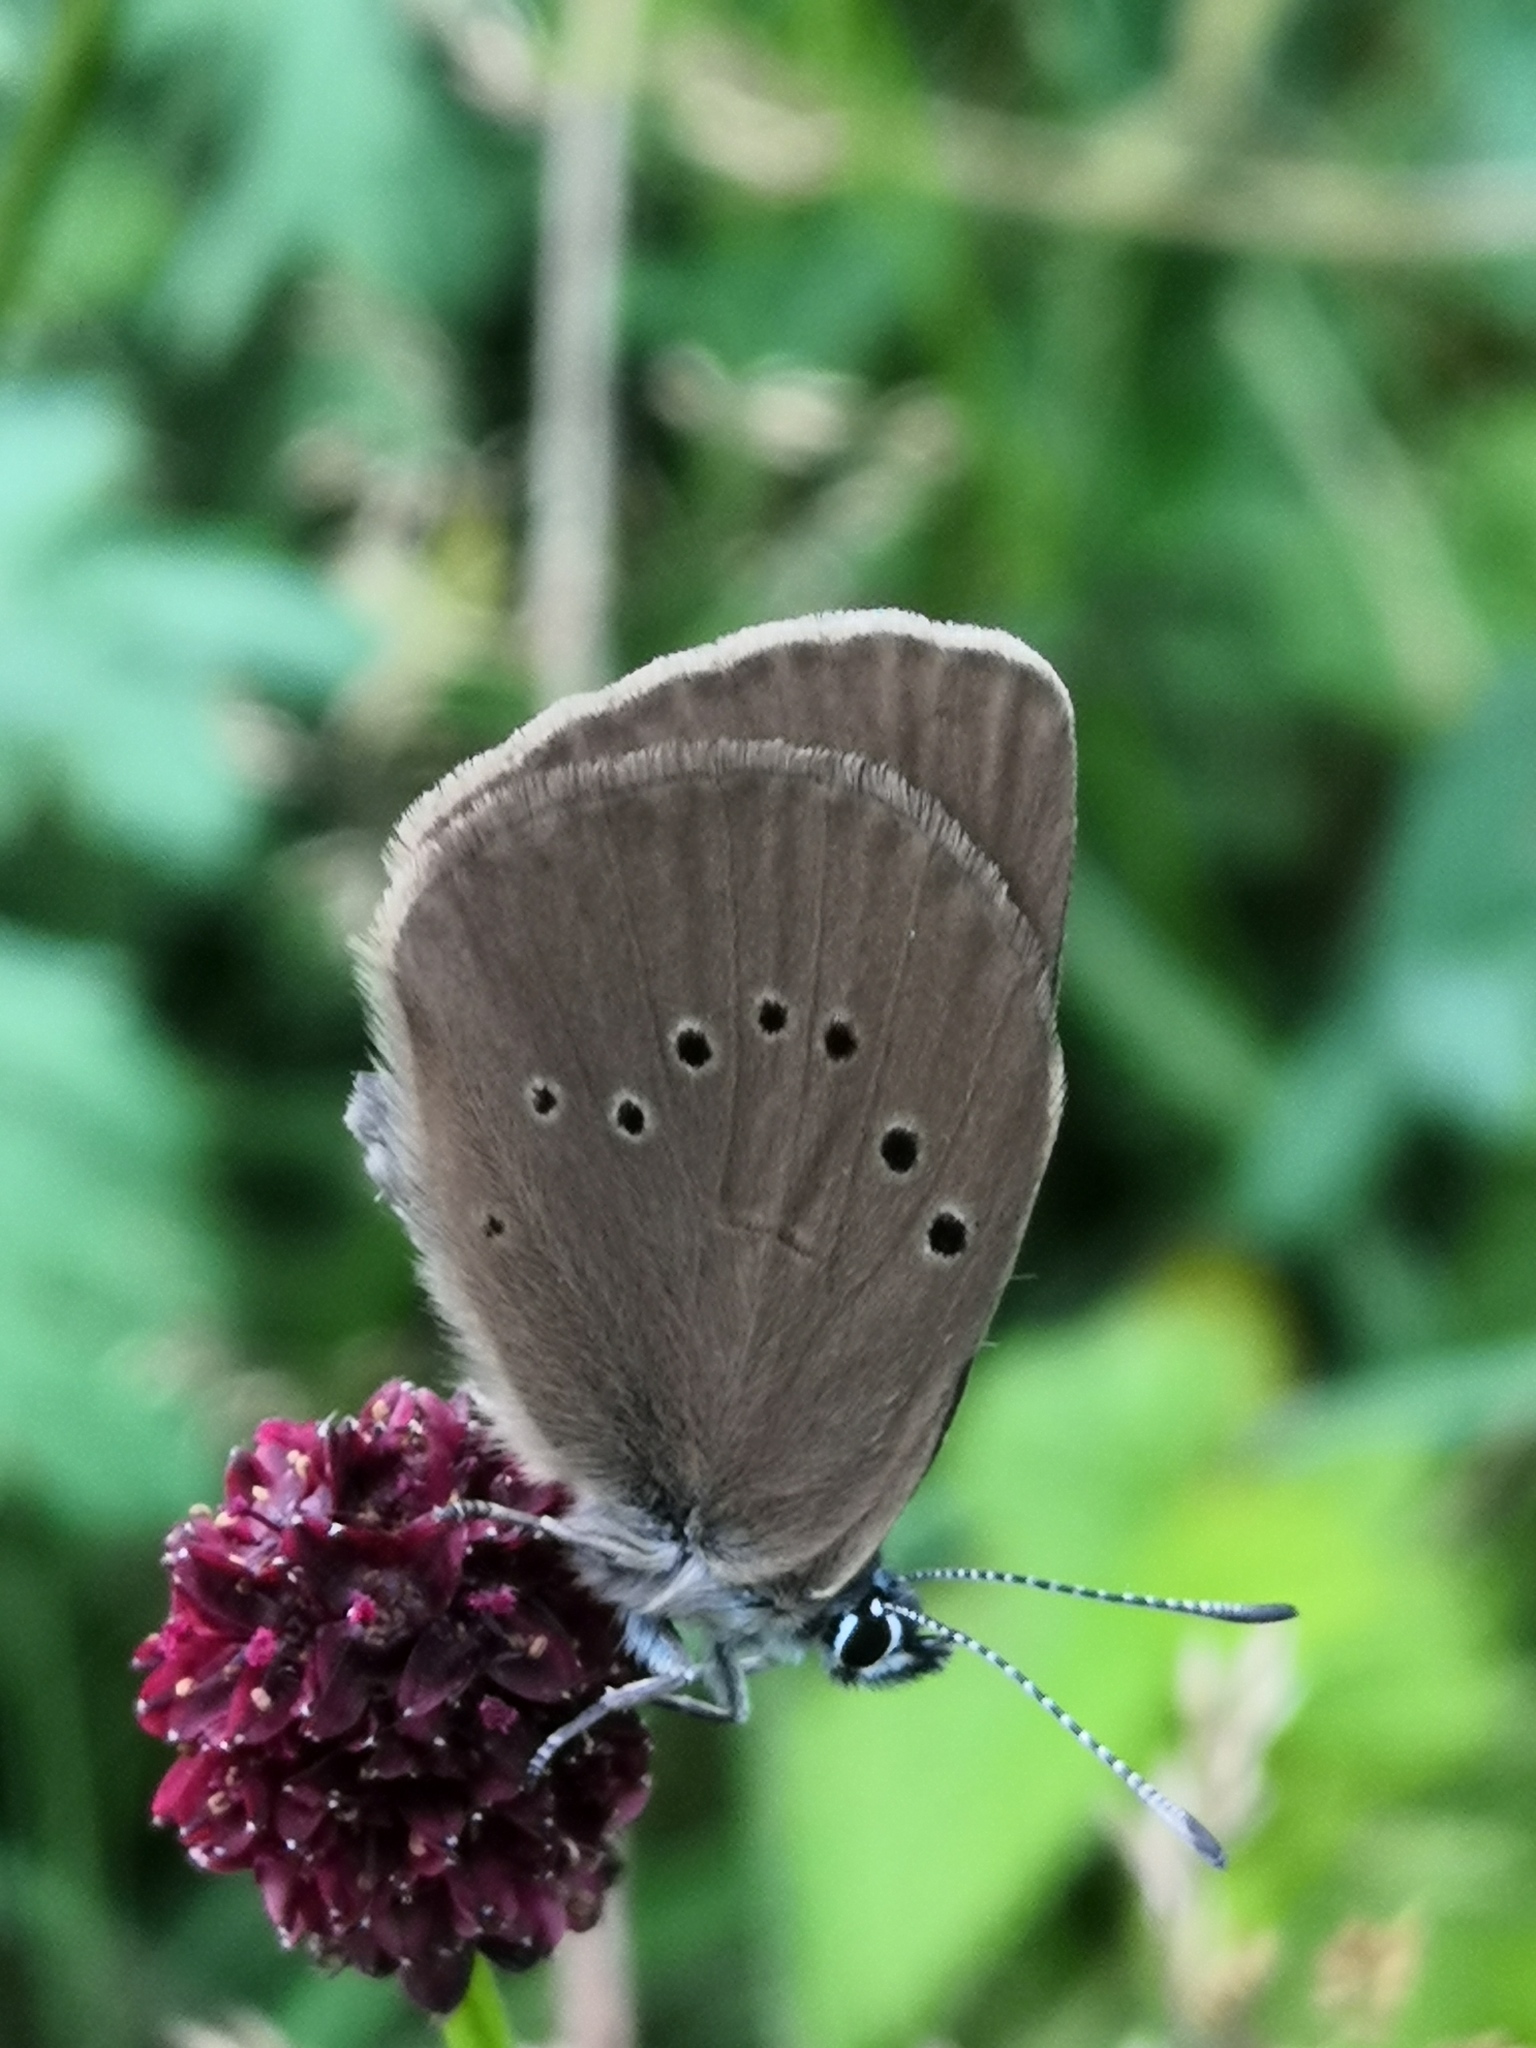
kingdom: Animalia
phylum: Arthropoda
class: Insecta
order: Lepidoptera
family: Lycaenidae
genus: Maculinea
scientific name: Maculinea nausithous
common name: Dusky large blue
